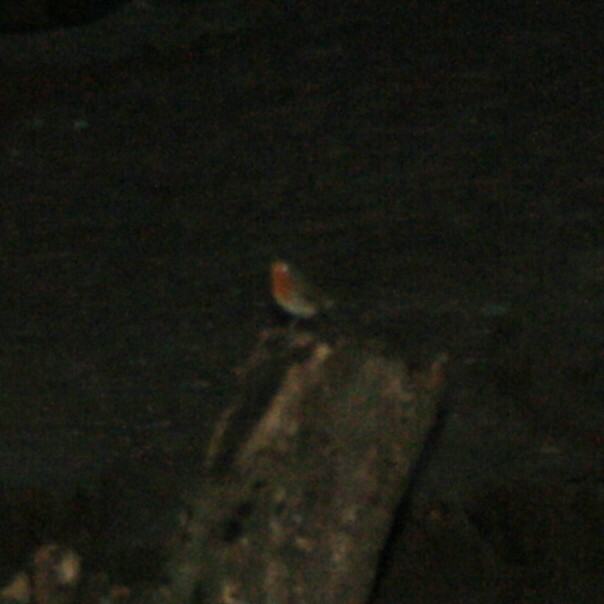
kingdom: Animalia
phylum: Chordata
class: Aves
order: Passeriformes
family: Muscicapidae
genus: Erithacus
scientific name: Erithacus rubecula
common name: European robin
